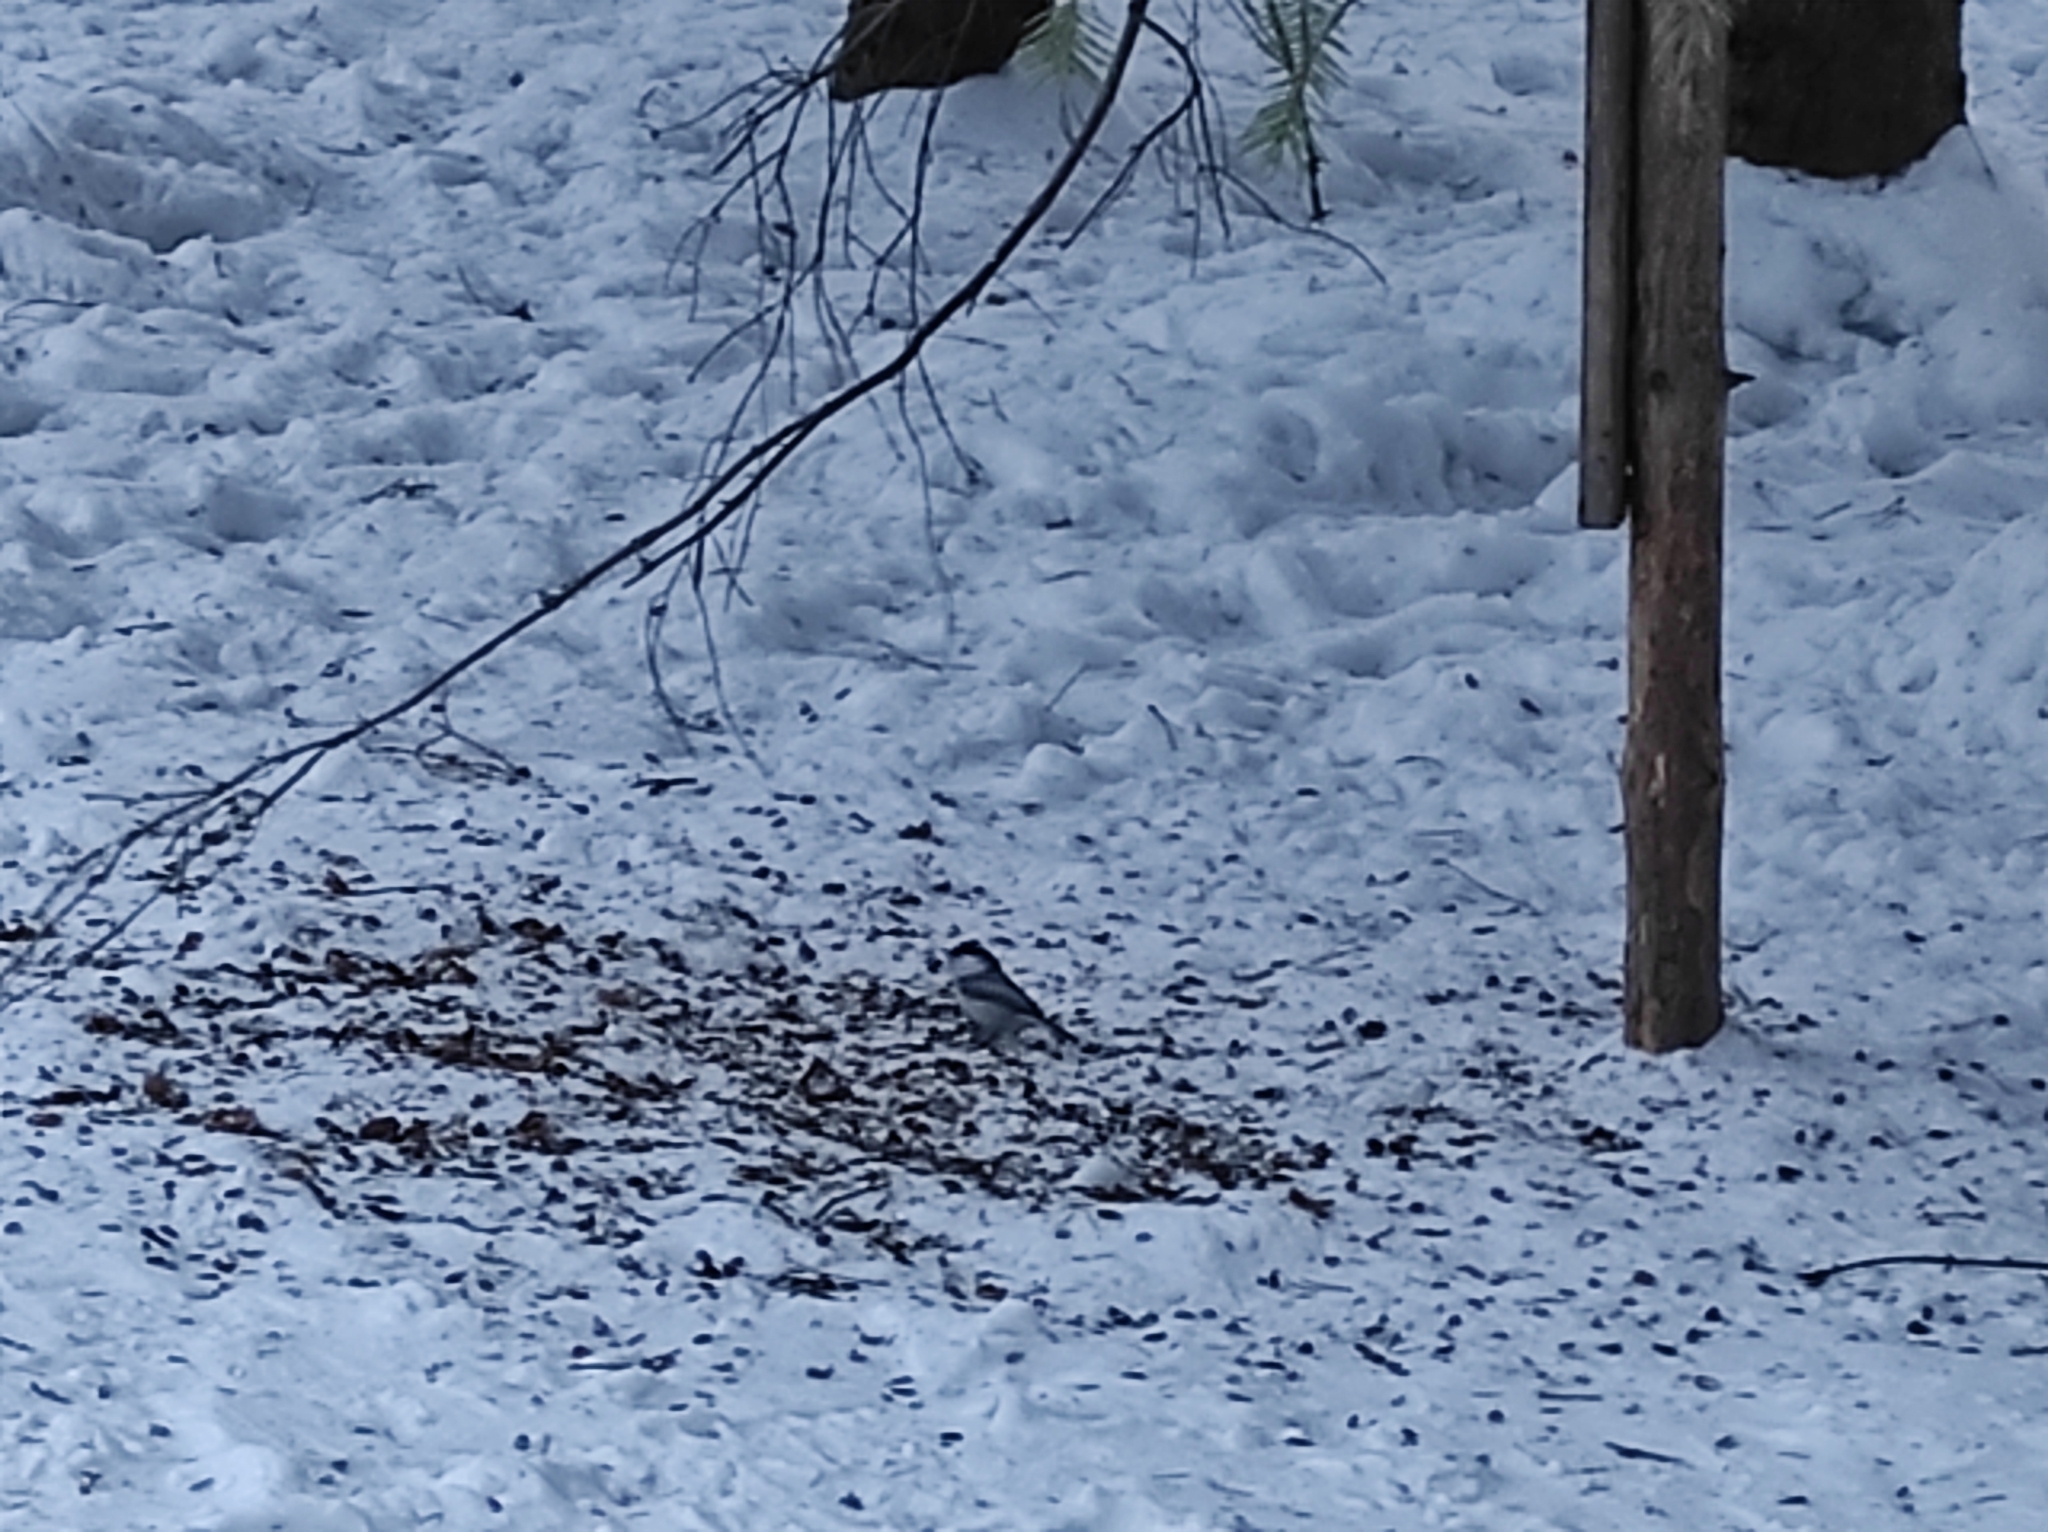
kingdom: Animalia
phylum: Chordata
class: Aves
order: Passeriformes
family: Paridae
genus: Poecile
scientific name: Poecile montanus
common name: Willow tit
